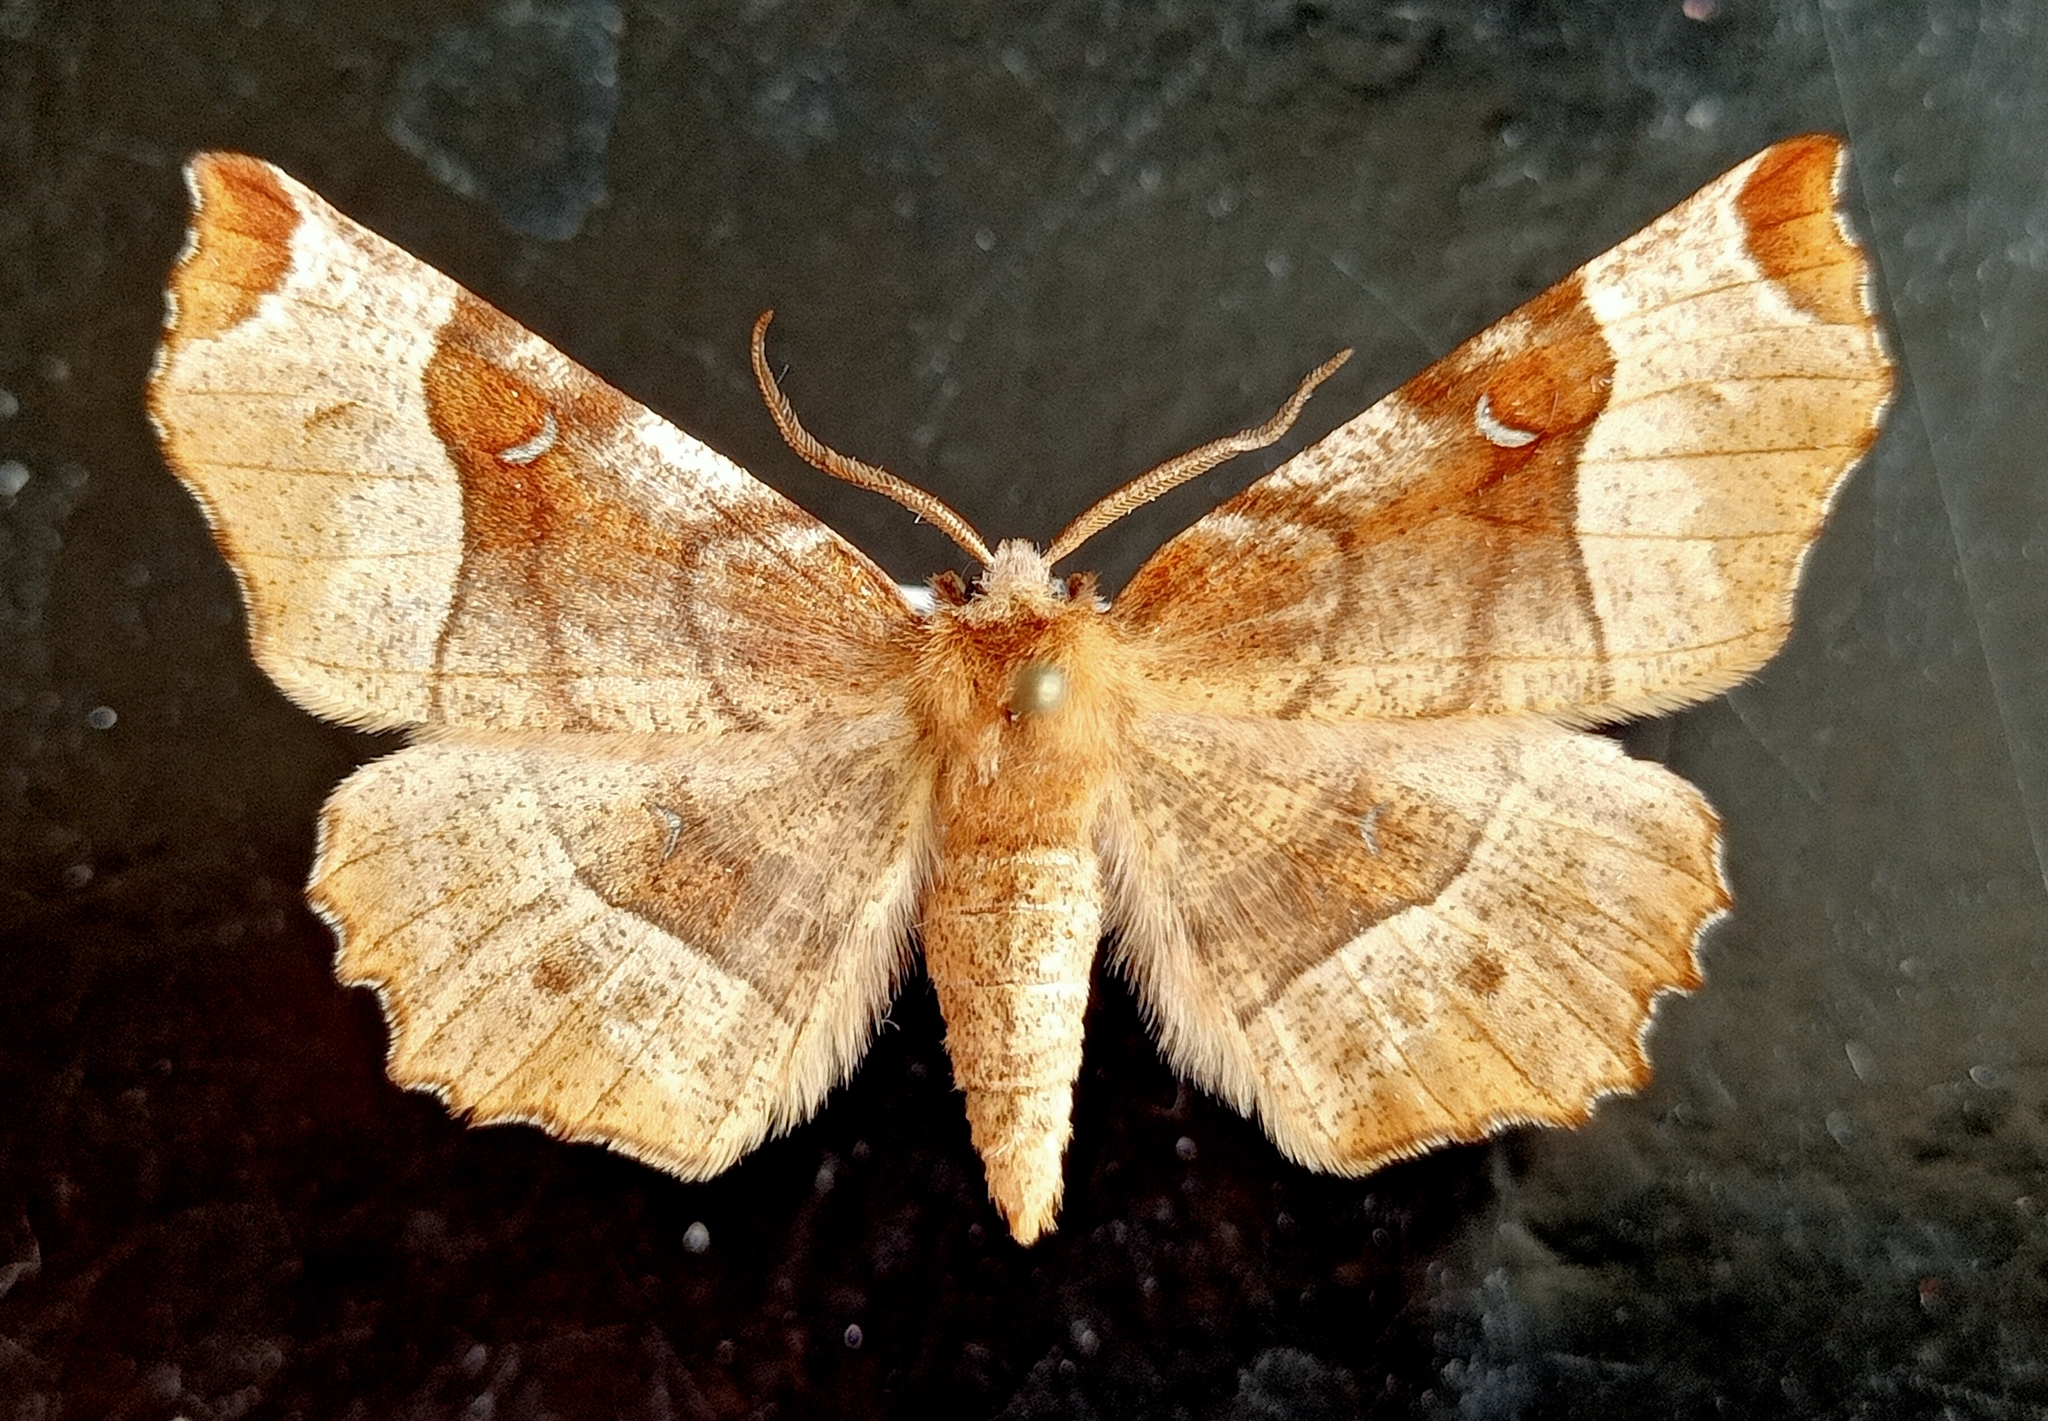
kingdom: Animalia
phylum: Arthropoda
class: Insecta
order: Lepidoptera
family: Geometridae
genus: Selenia
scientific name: Selenia tetralunaria
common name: Purple thorn
